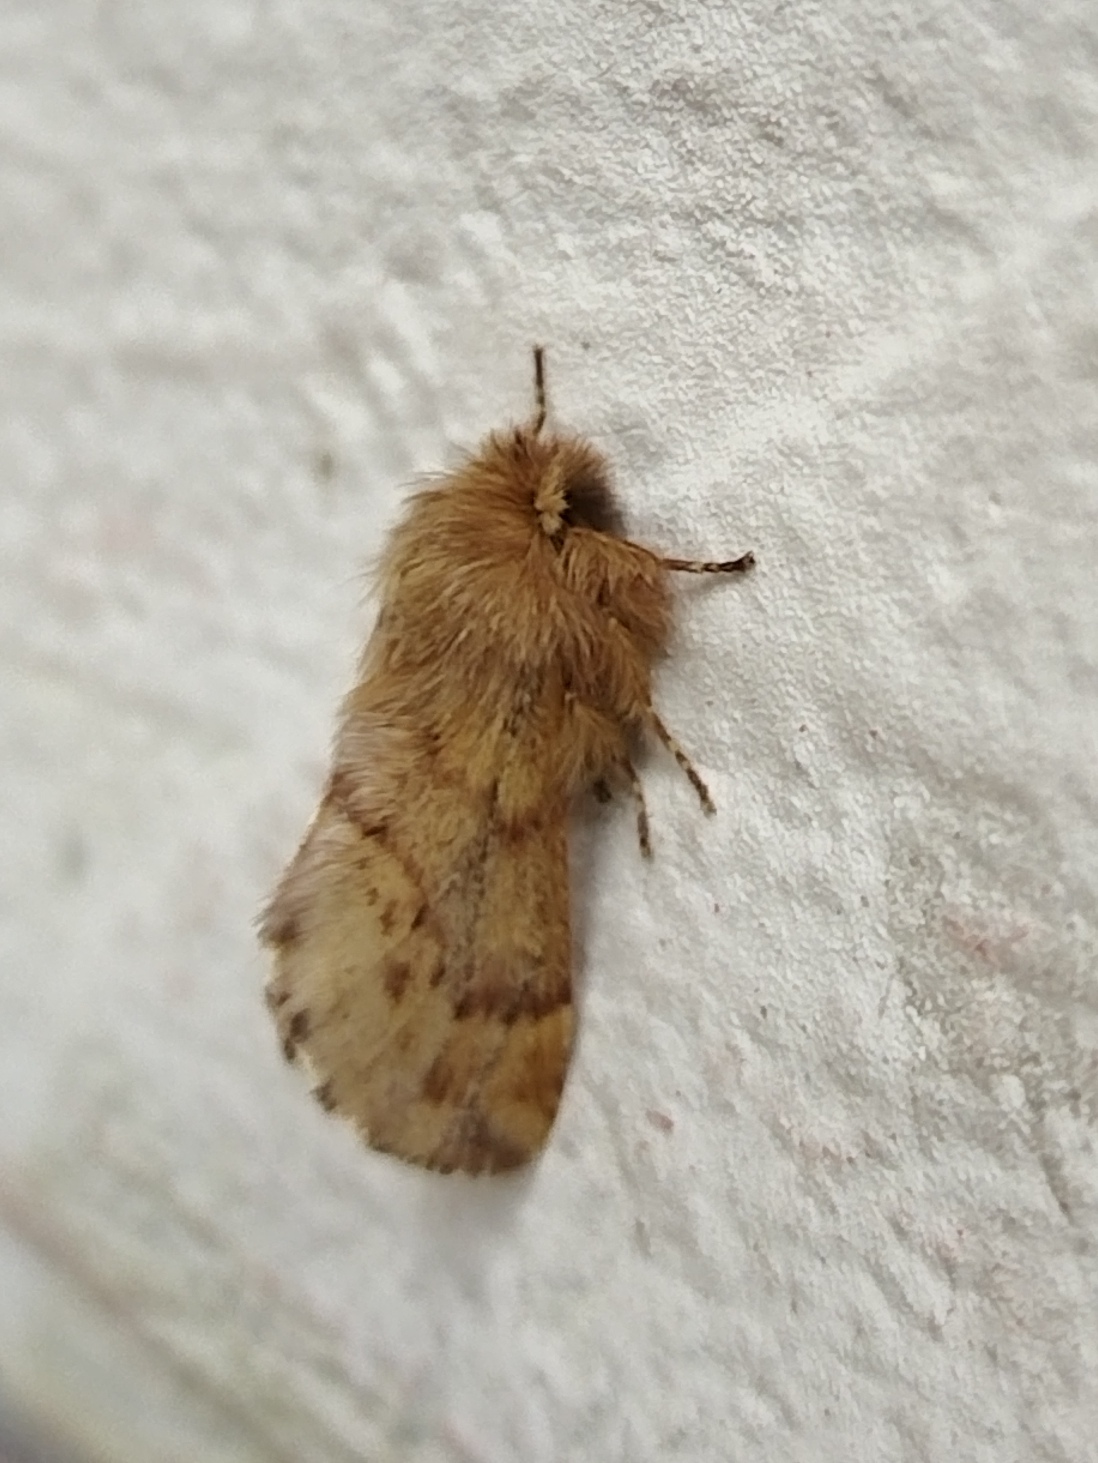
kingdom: Animalia
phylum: Arthropoda
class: Insecta
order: Lepidoptera
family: Notodontidae
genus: Ptilophora
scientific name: Ptilophora plumigera
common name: Plumed prominent
